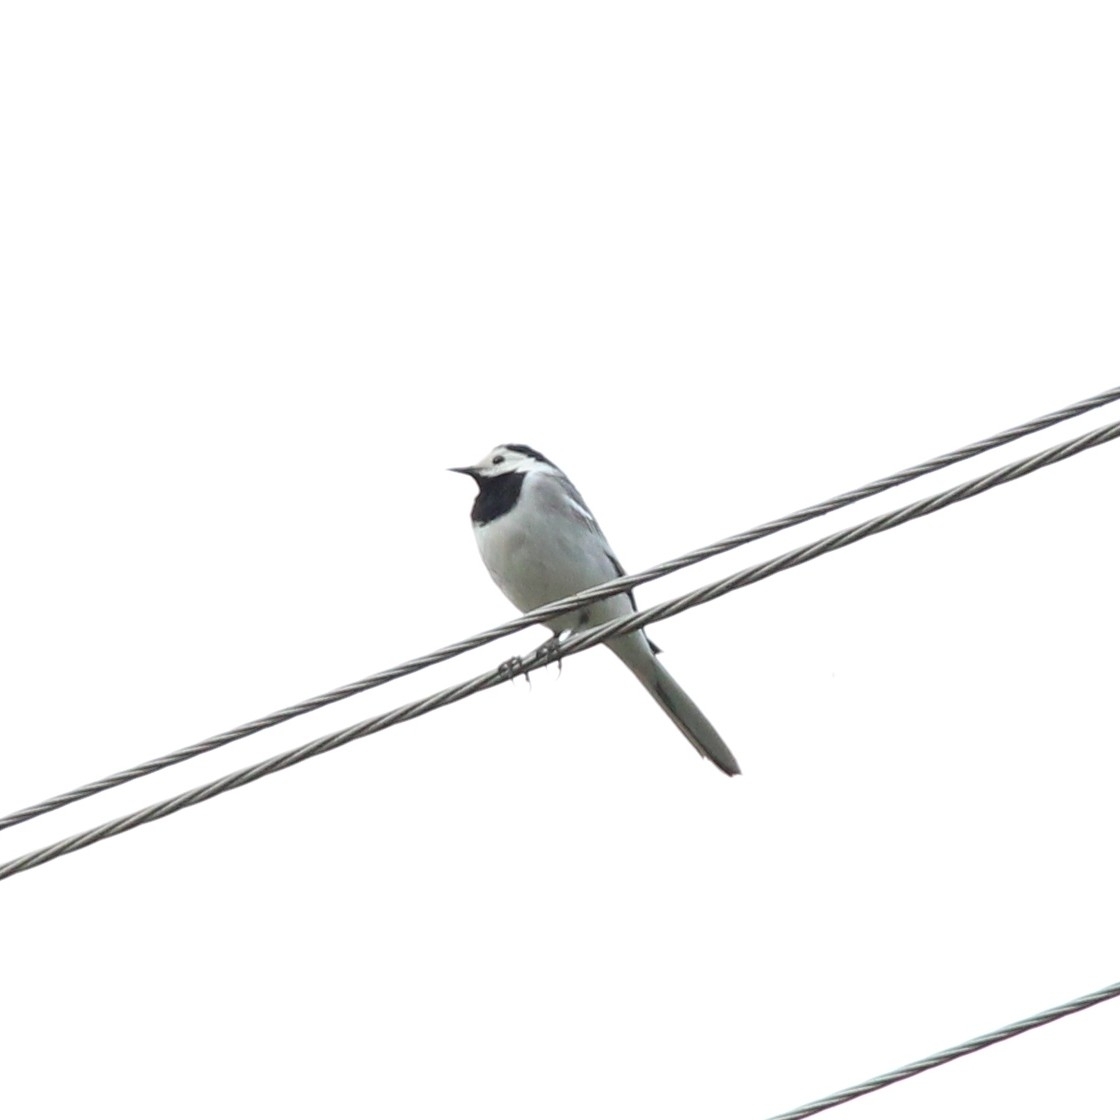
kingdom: Animalia
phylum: Chordata
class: Aves
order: Passeriformes
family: Motacillidae
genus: Motacilla
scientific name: Motacilla alba
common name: White wagtail
